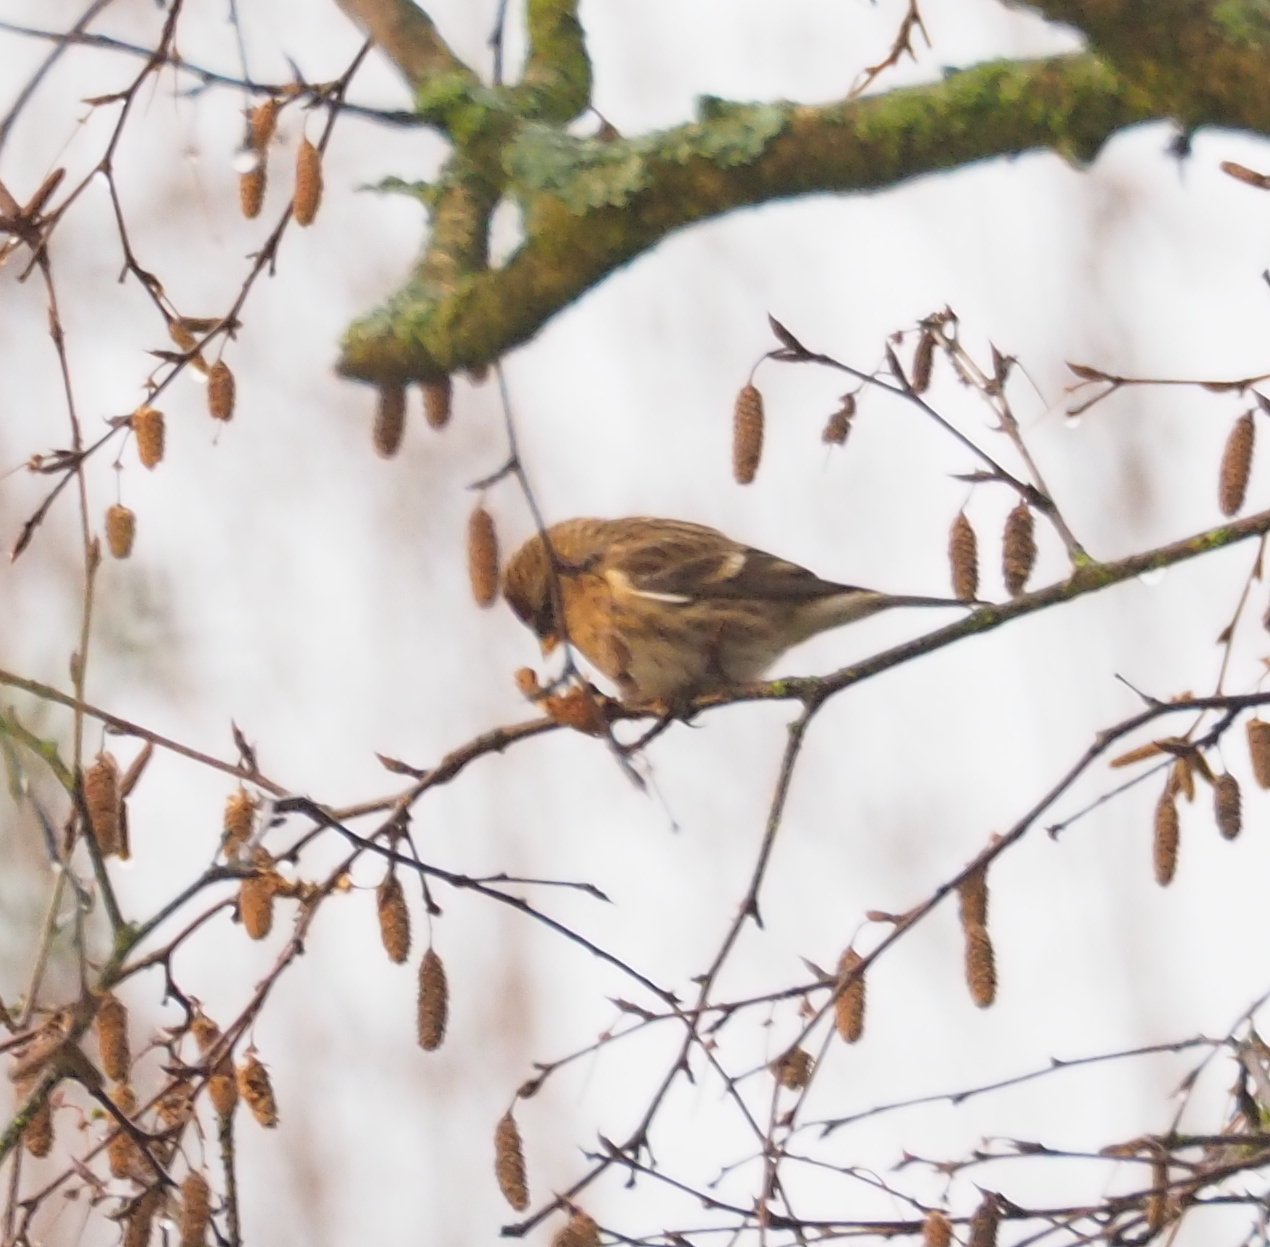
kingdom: Animalia
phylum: Chordata
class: Aves
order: Passeriformes
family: Fringillidae
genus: Acanthis
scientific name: Acanthis flammea
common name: Common redpoll
